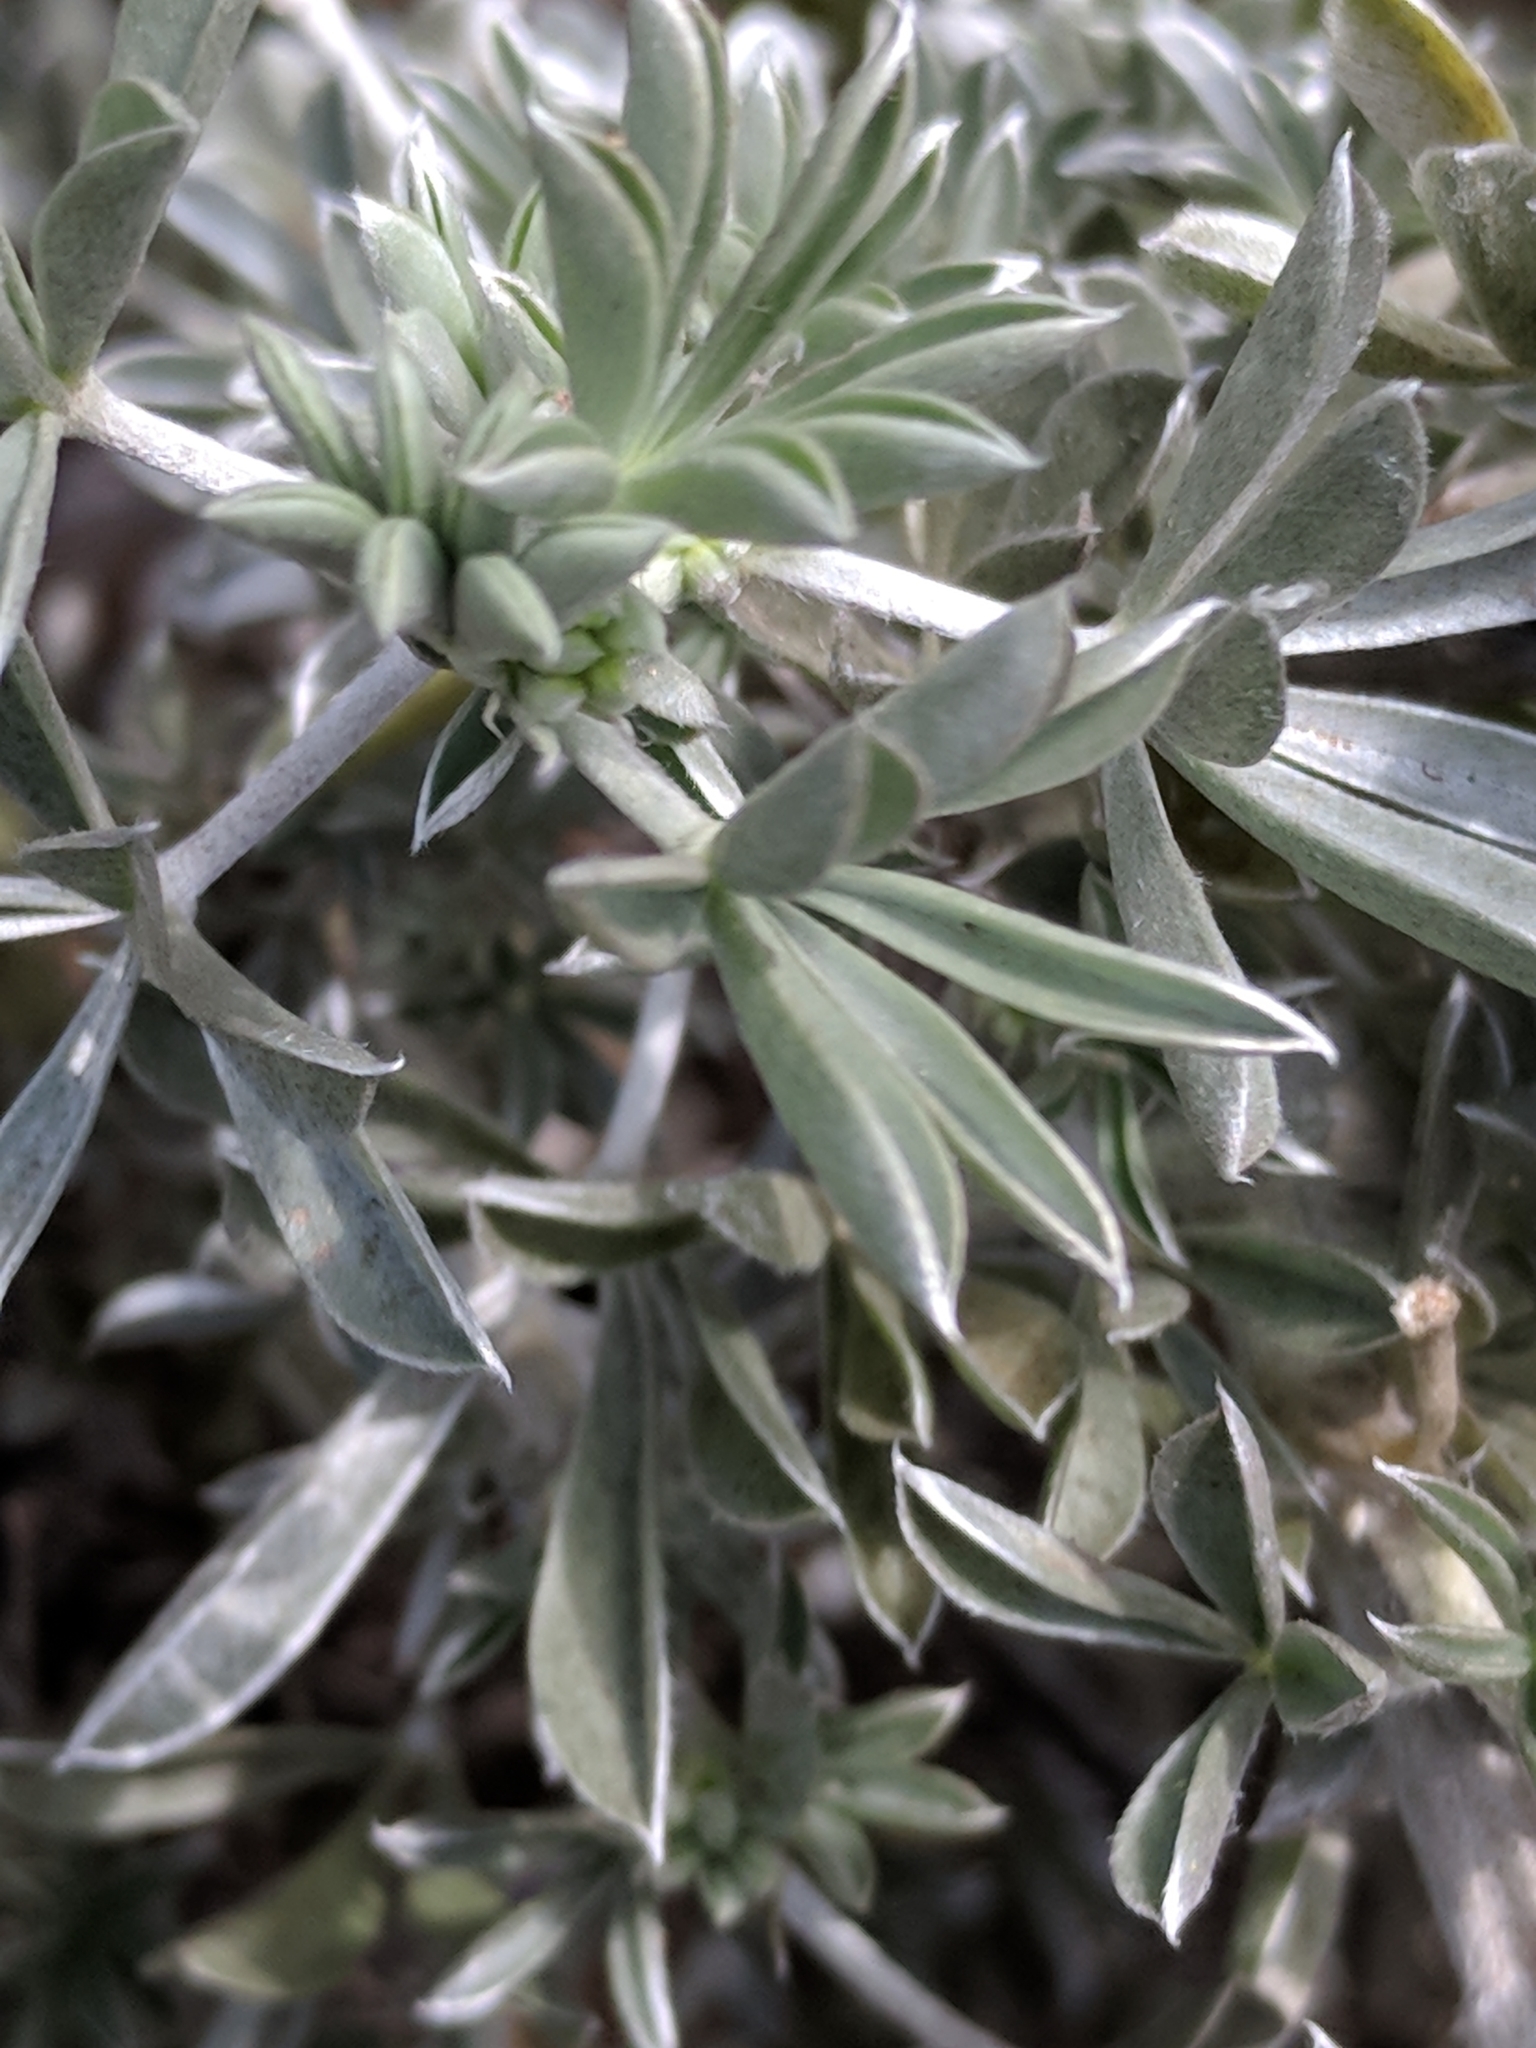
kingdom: Plantae
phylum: Tracheophyta
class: Magnoliopsida
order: Fabales
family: Fabaceae
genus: Lupinus
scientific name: Lupinus chamissonis
